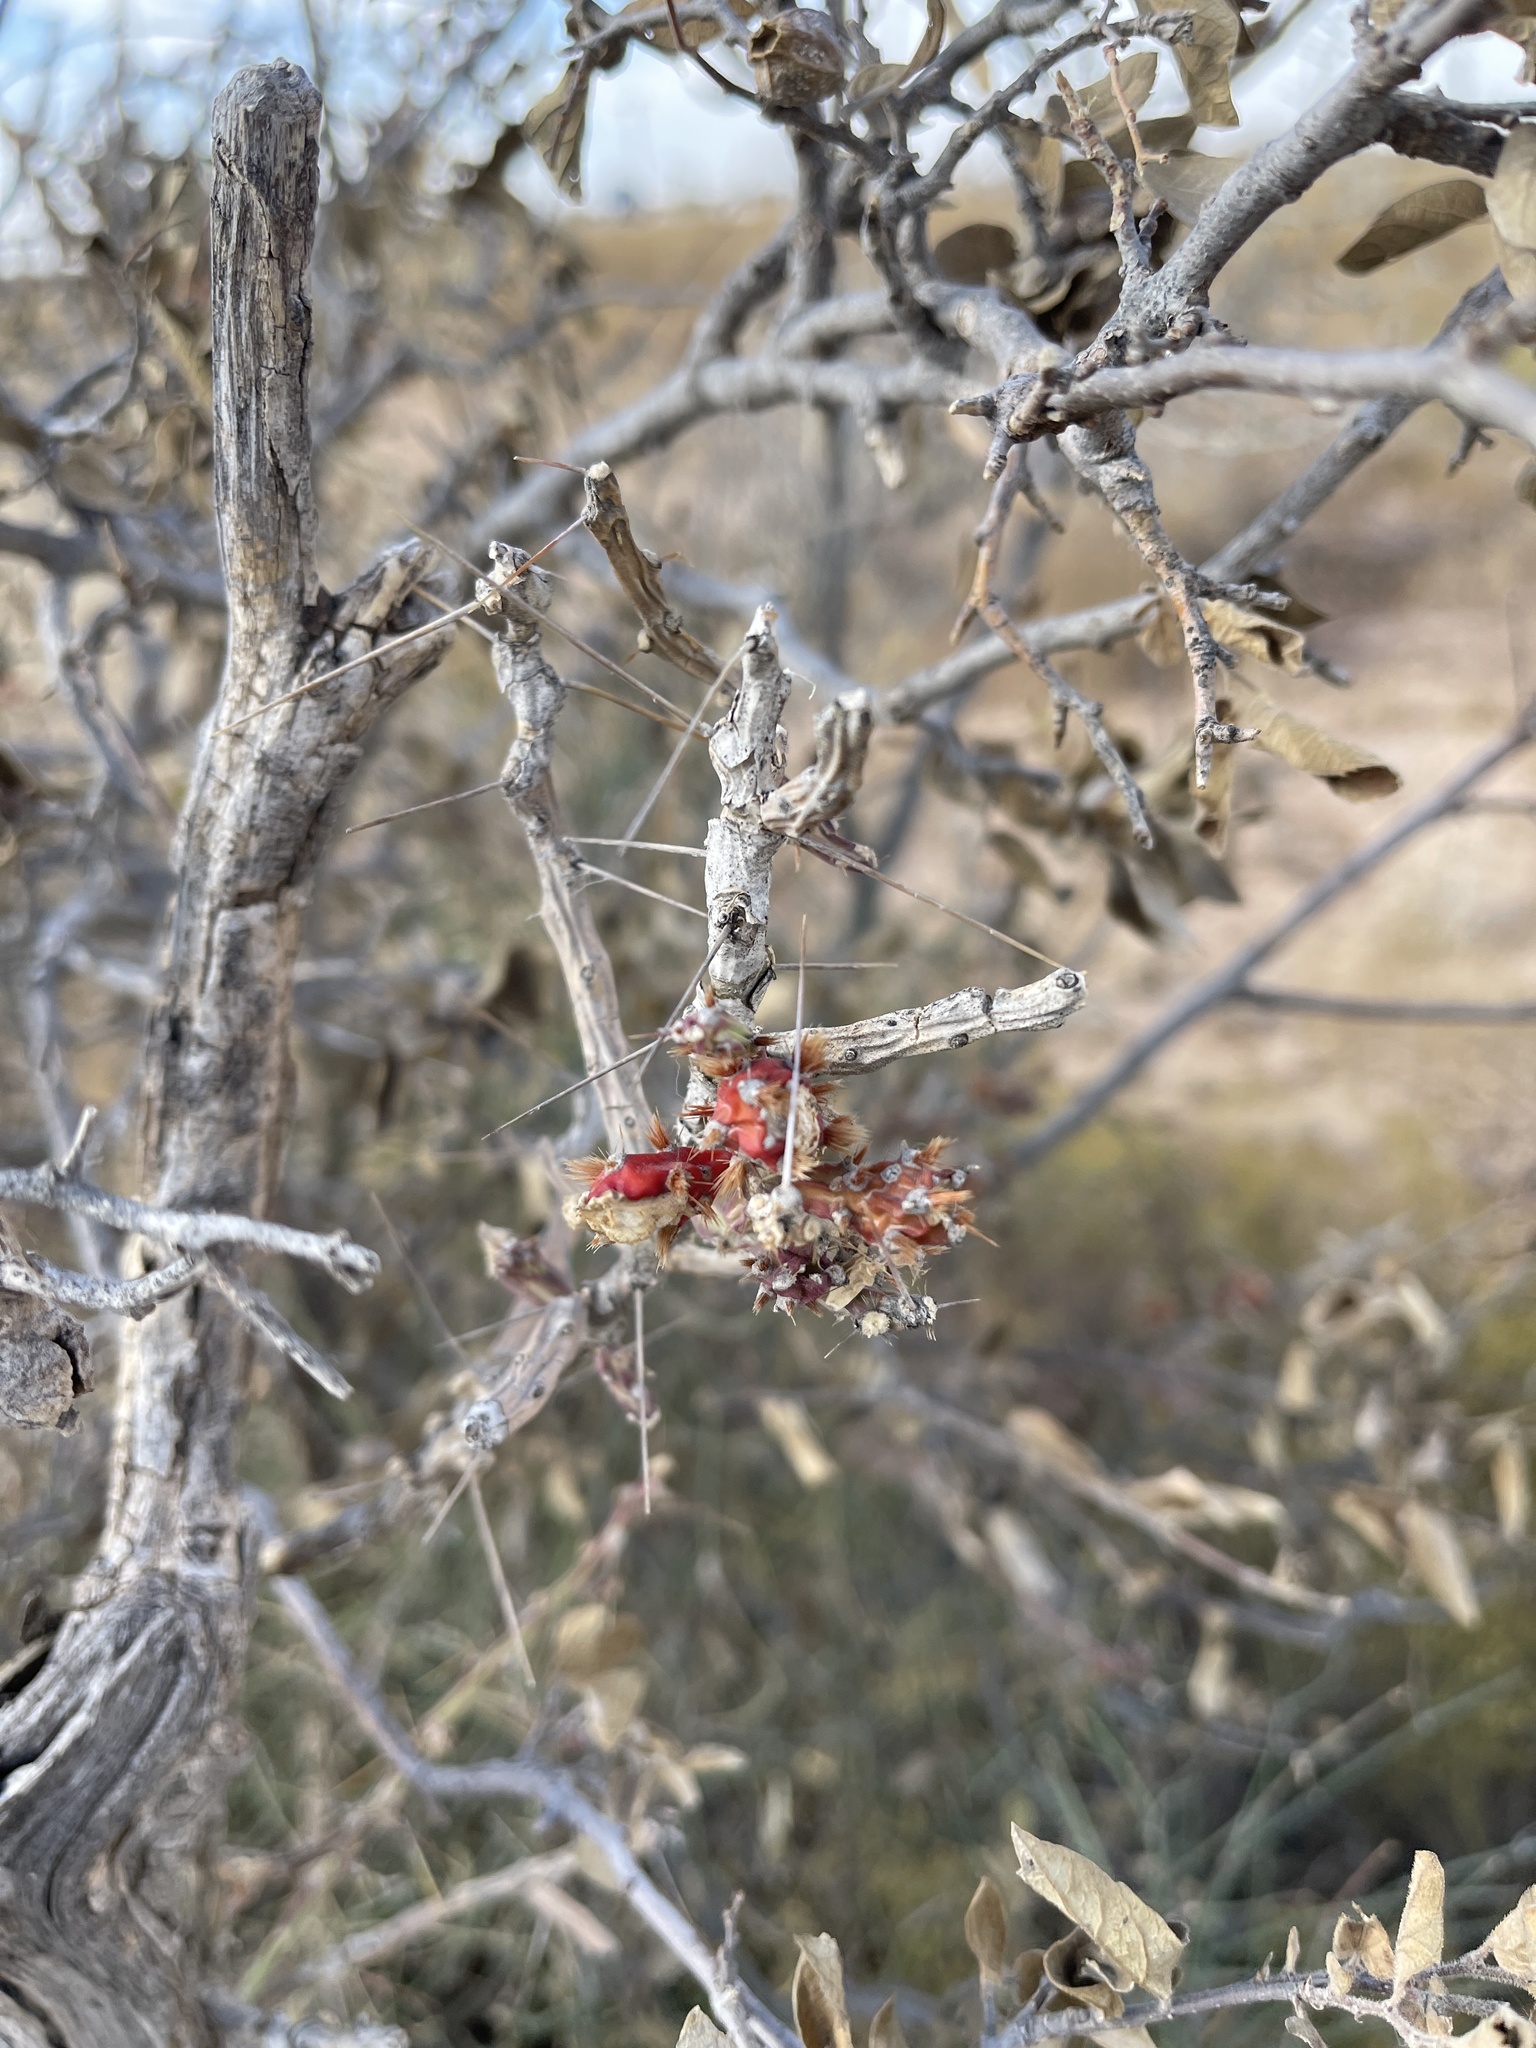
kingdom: Plantae
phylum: Tracheophyta
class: Magnoliopsida
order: Caryophyllales
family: Cactaceae
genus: Cylindropuntia
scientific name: Cylindropuntia leptocaulis
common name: Christmas cactus
